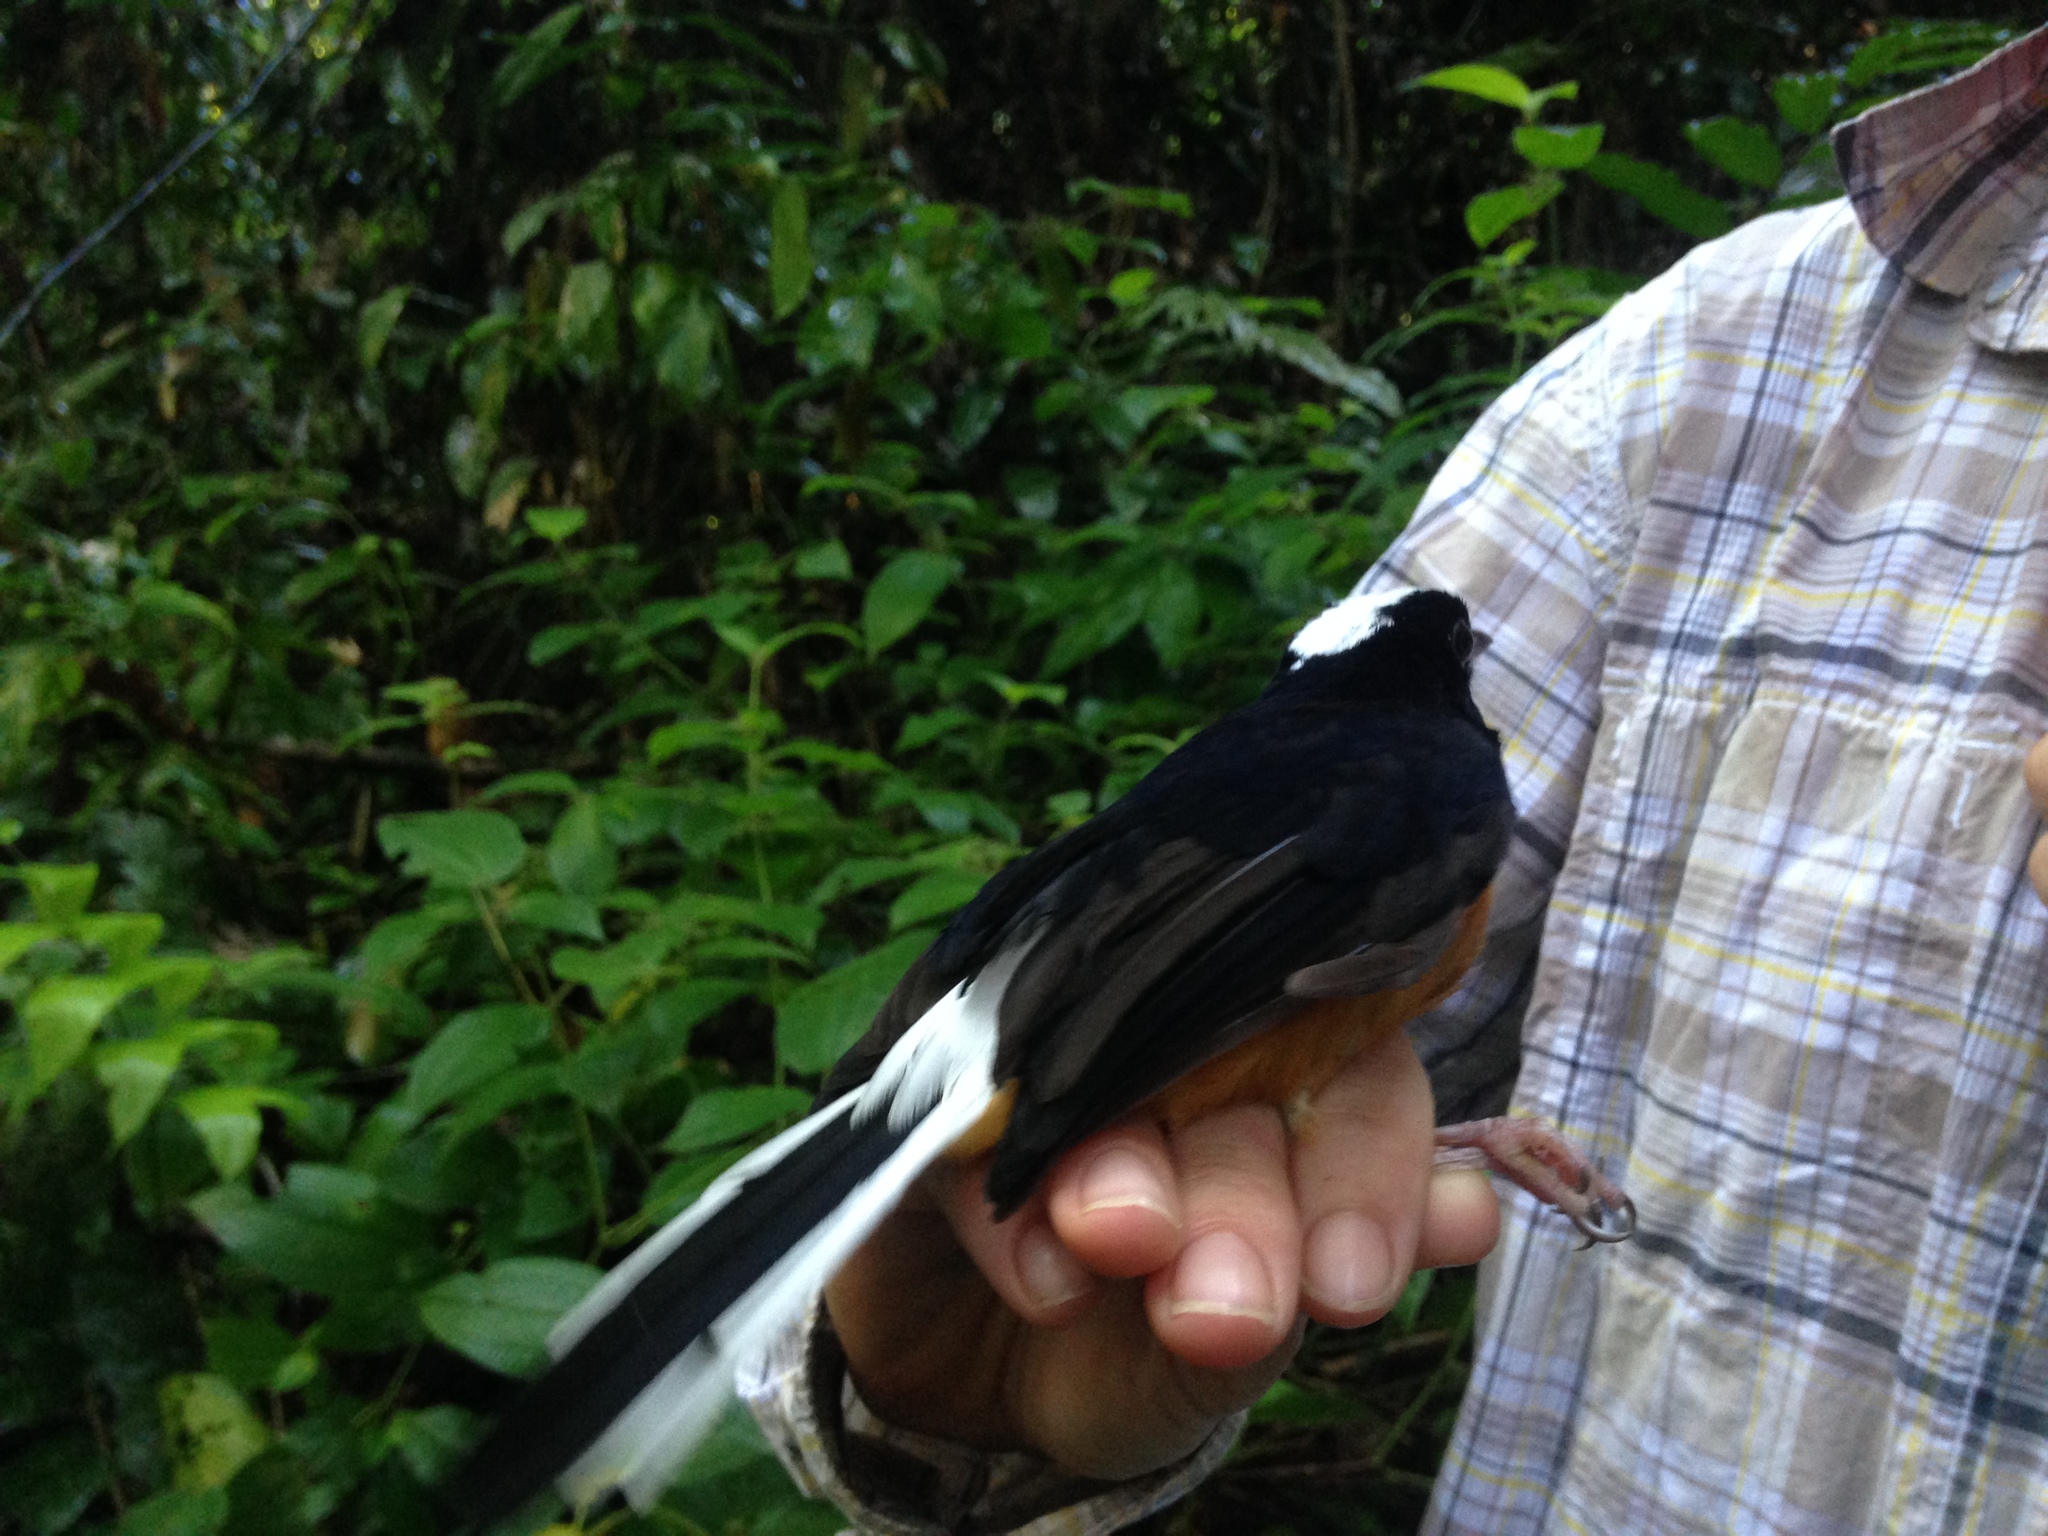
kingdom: Animalia
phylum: Chordata
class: Aves
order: Passeriformes
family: Muscicapidae
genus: Copsychus
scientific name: Copsychus stricklandii
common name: White-crowned shama
